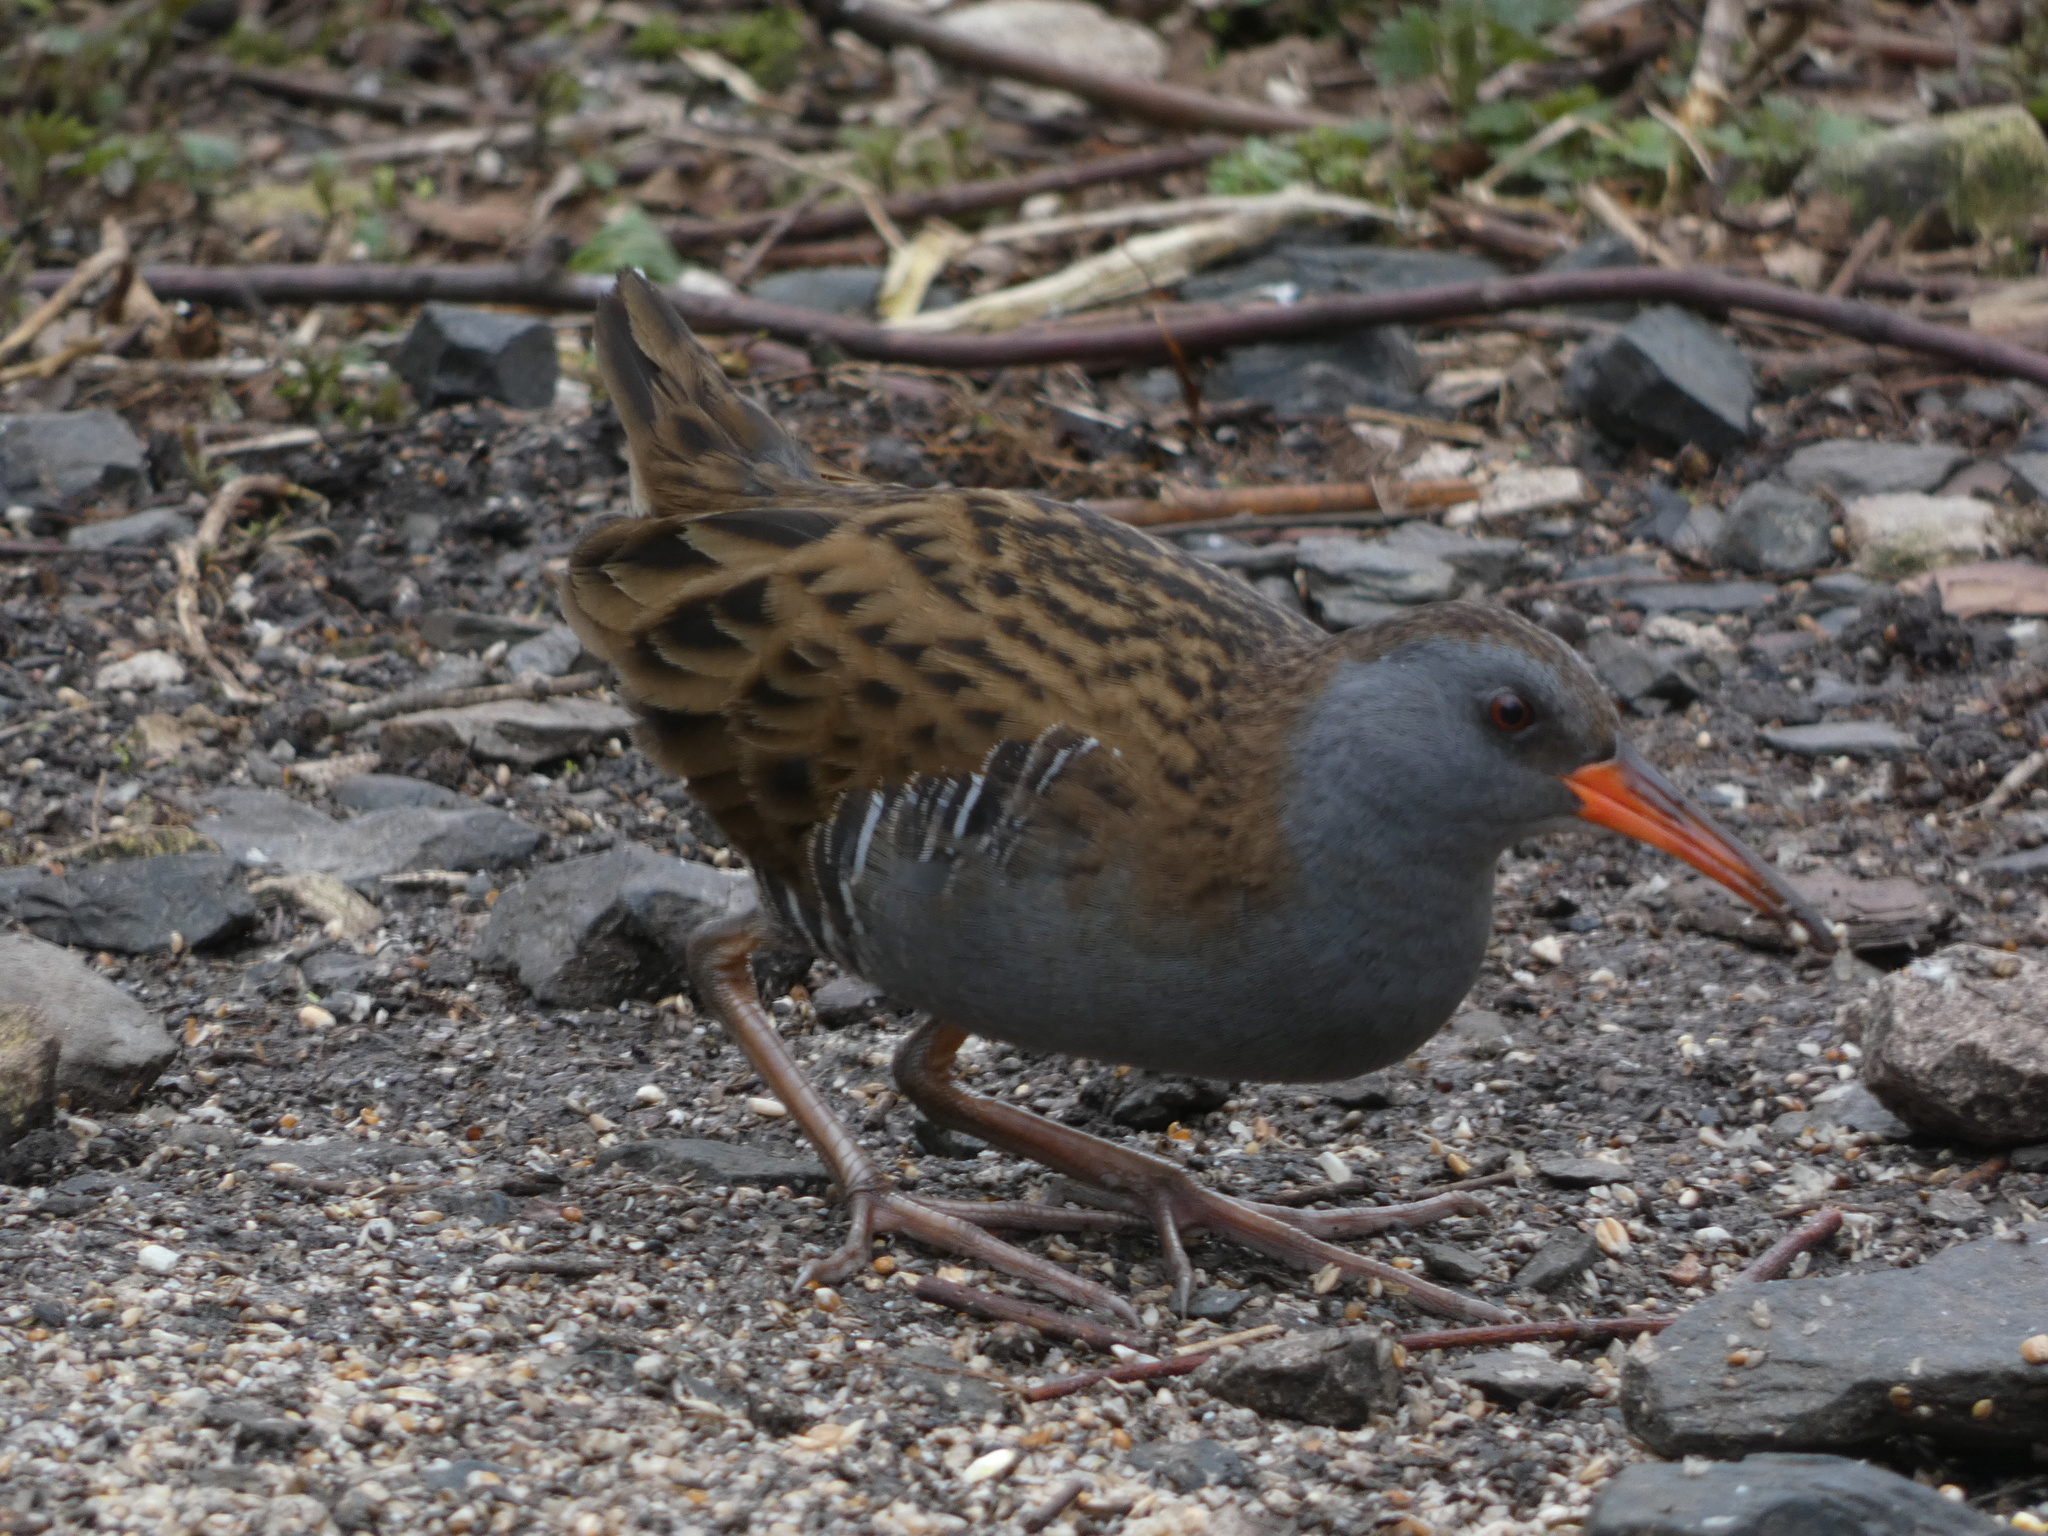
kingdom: Animalia
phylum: Chordata
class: Aves
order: Gruiformes
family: Rallidae
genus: Rallus
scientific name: Rallus aquaticus
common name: Water rail
